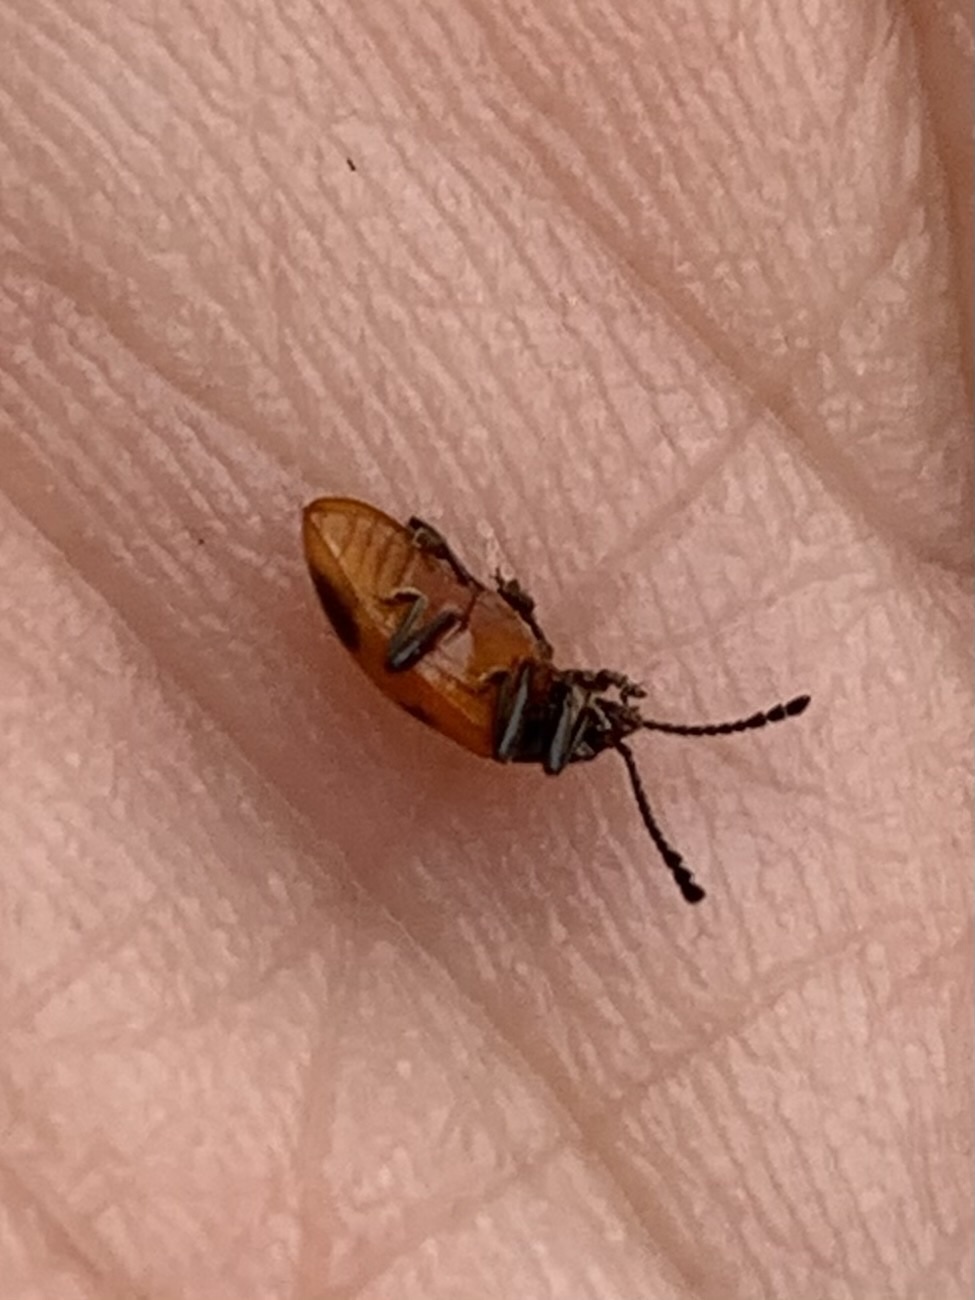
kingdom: Animalia
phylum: Arthropoda
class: Insecta
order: Coleoptera
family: Endomychidae
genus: Endomychus
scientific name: Endomychus biguttatus
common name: Handsome fungus beetle
